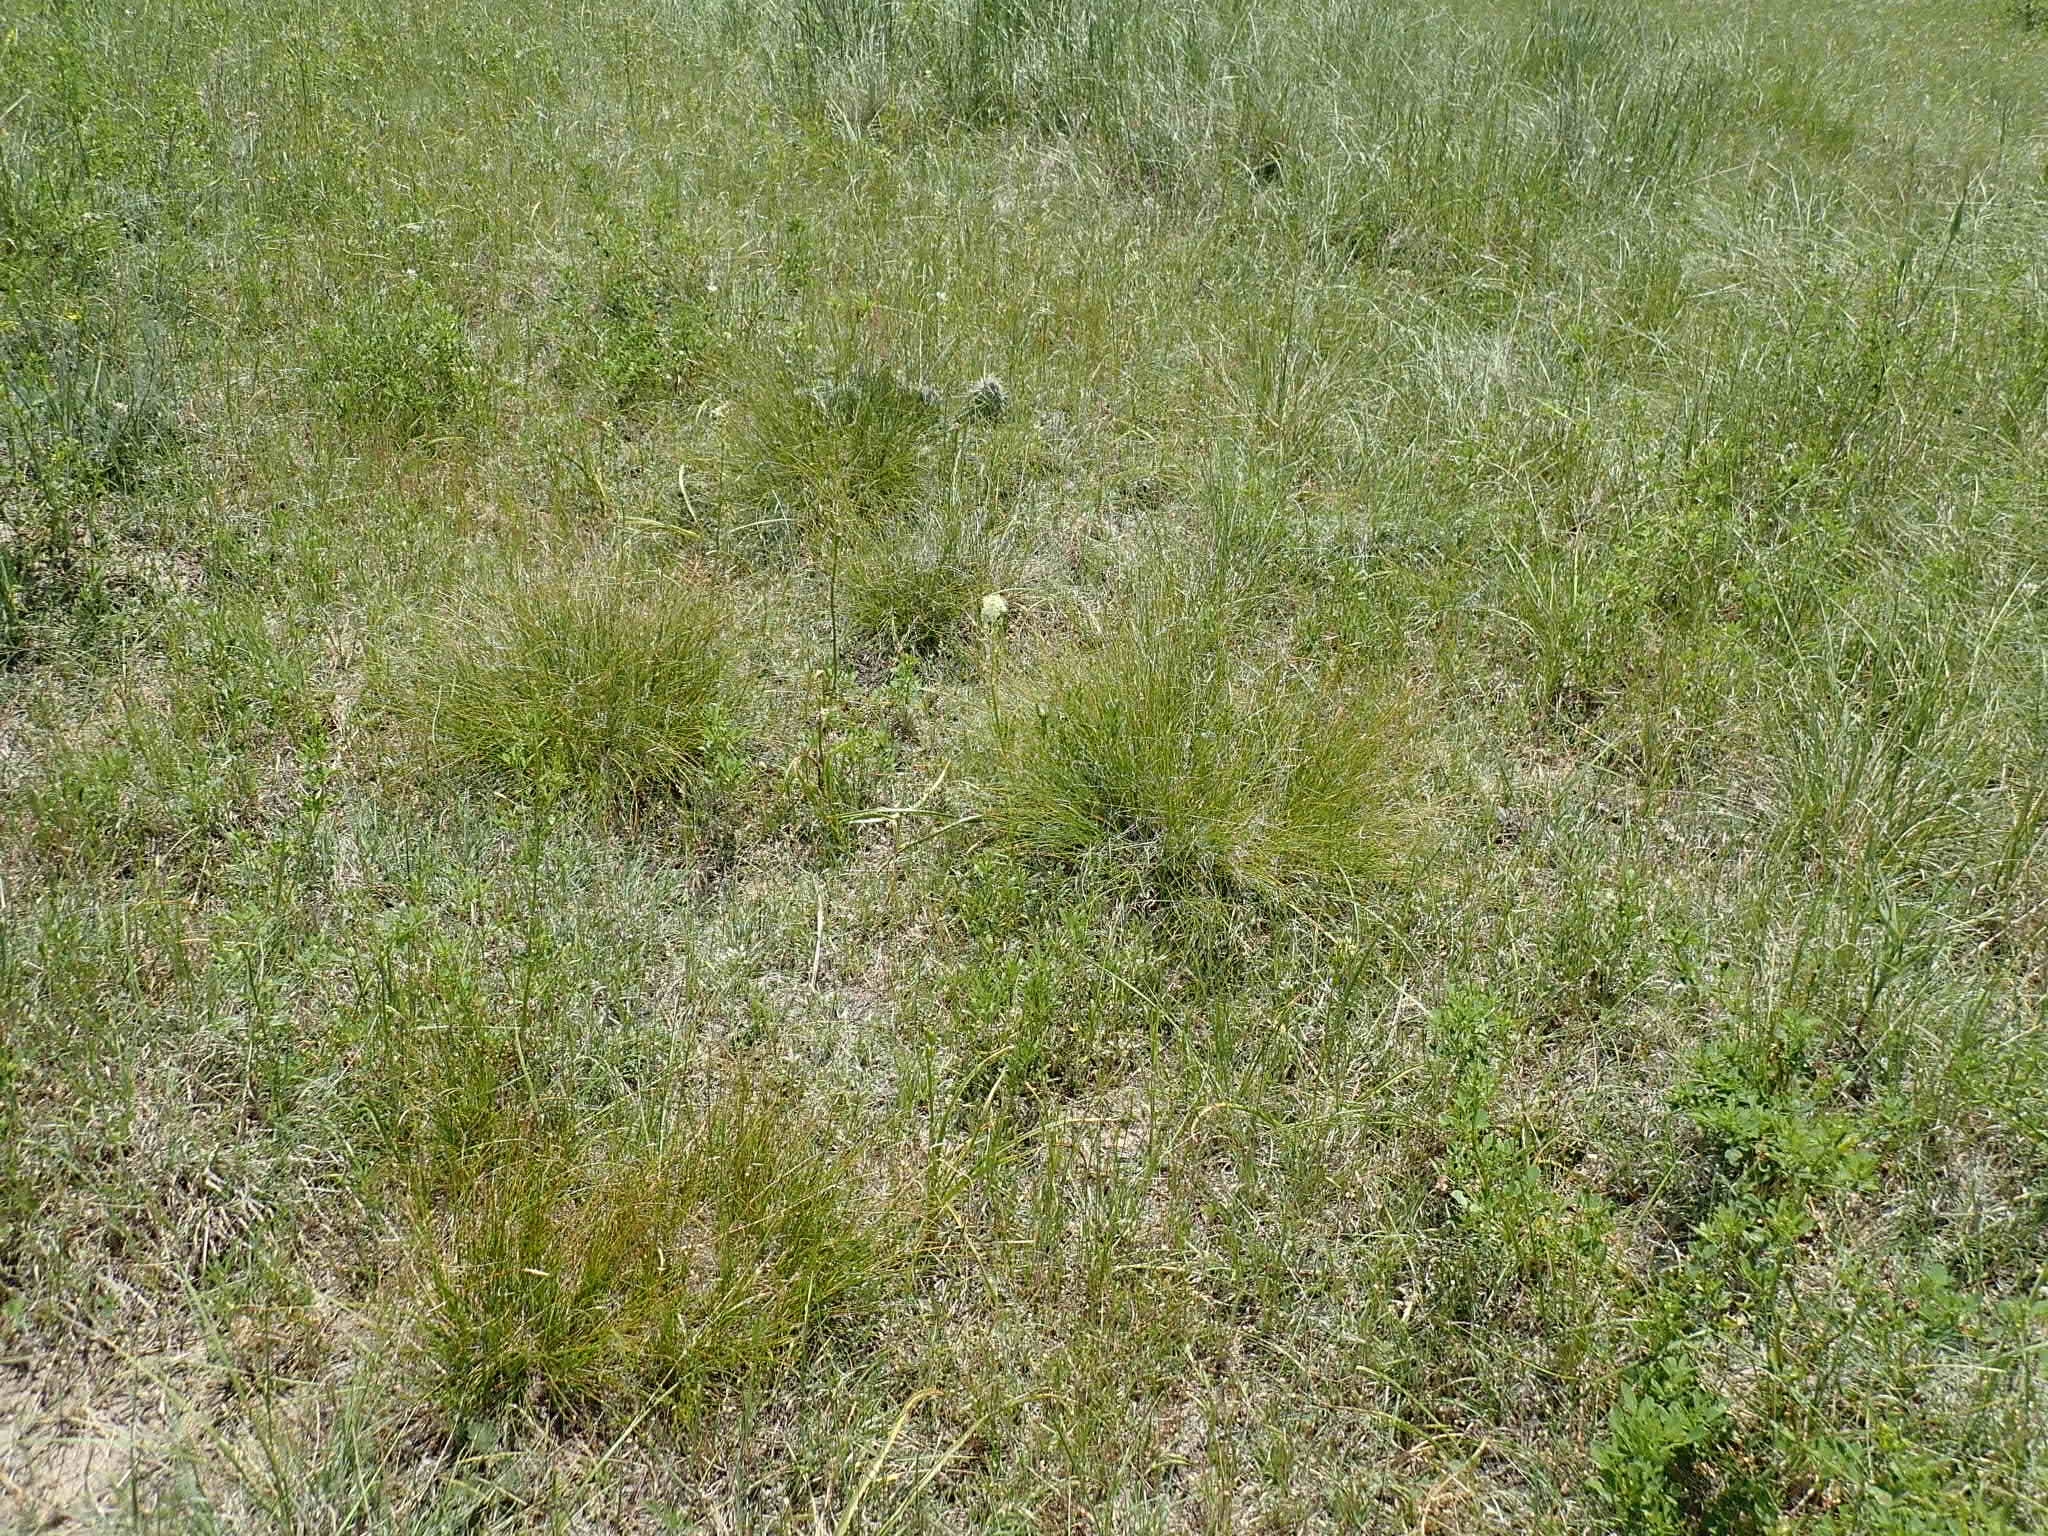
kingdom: Plantae
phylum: Tracheophyta
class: Liliopsida
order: Liliales
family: Melanthiaceae
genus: Toxicoscordion
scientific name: Toxicoscordion venenosum
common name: Meadow death camas
